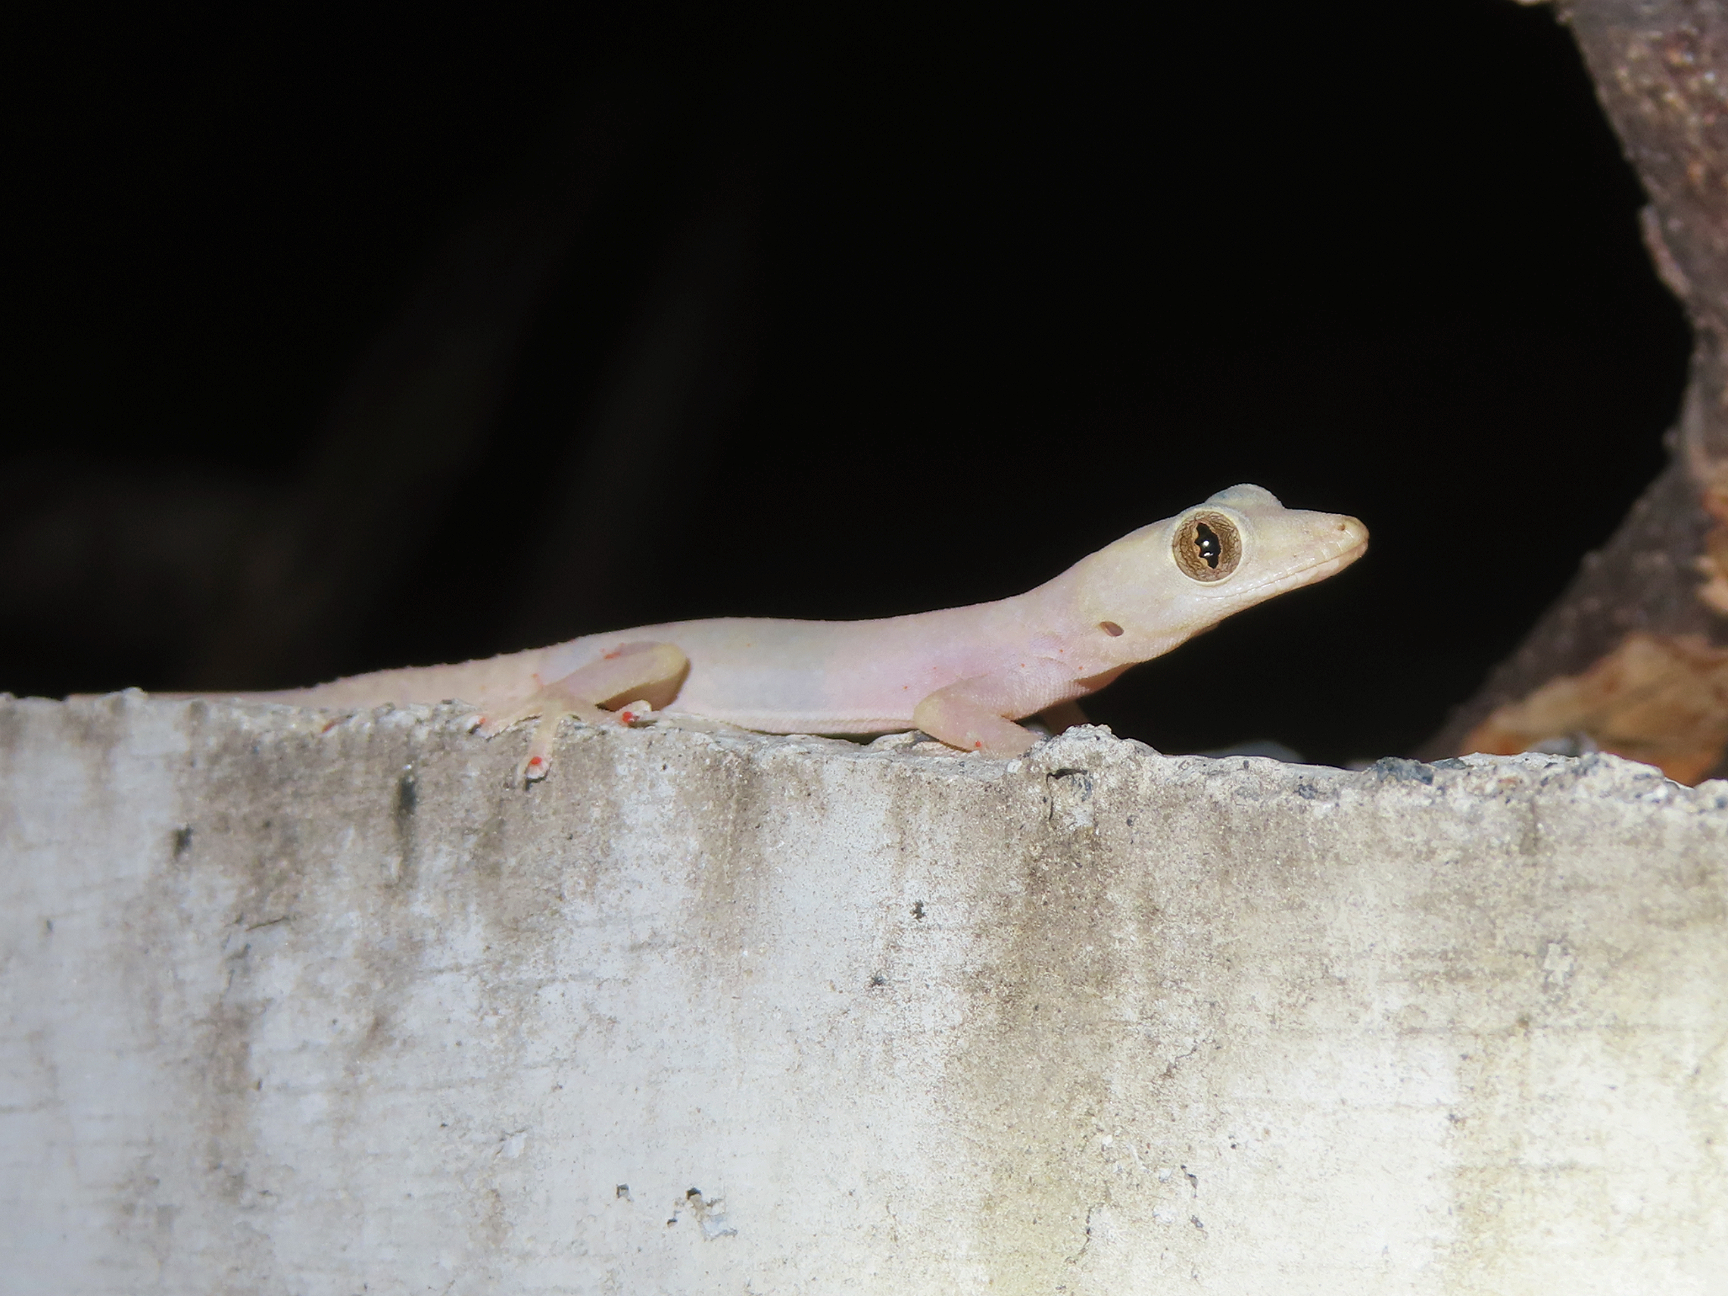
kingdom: Animalia
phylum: Chordata
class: Squamata
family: Gekkonidae
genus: Hemidactylus
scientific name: Hemidactylus frenatus
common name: Common house gecko
